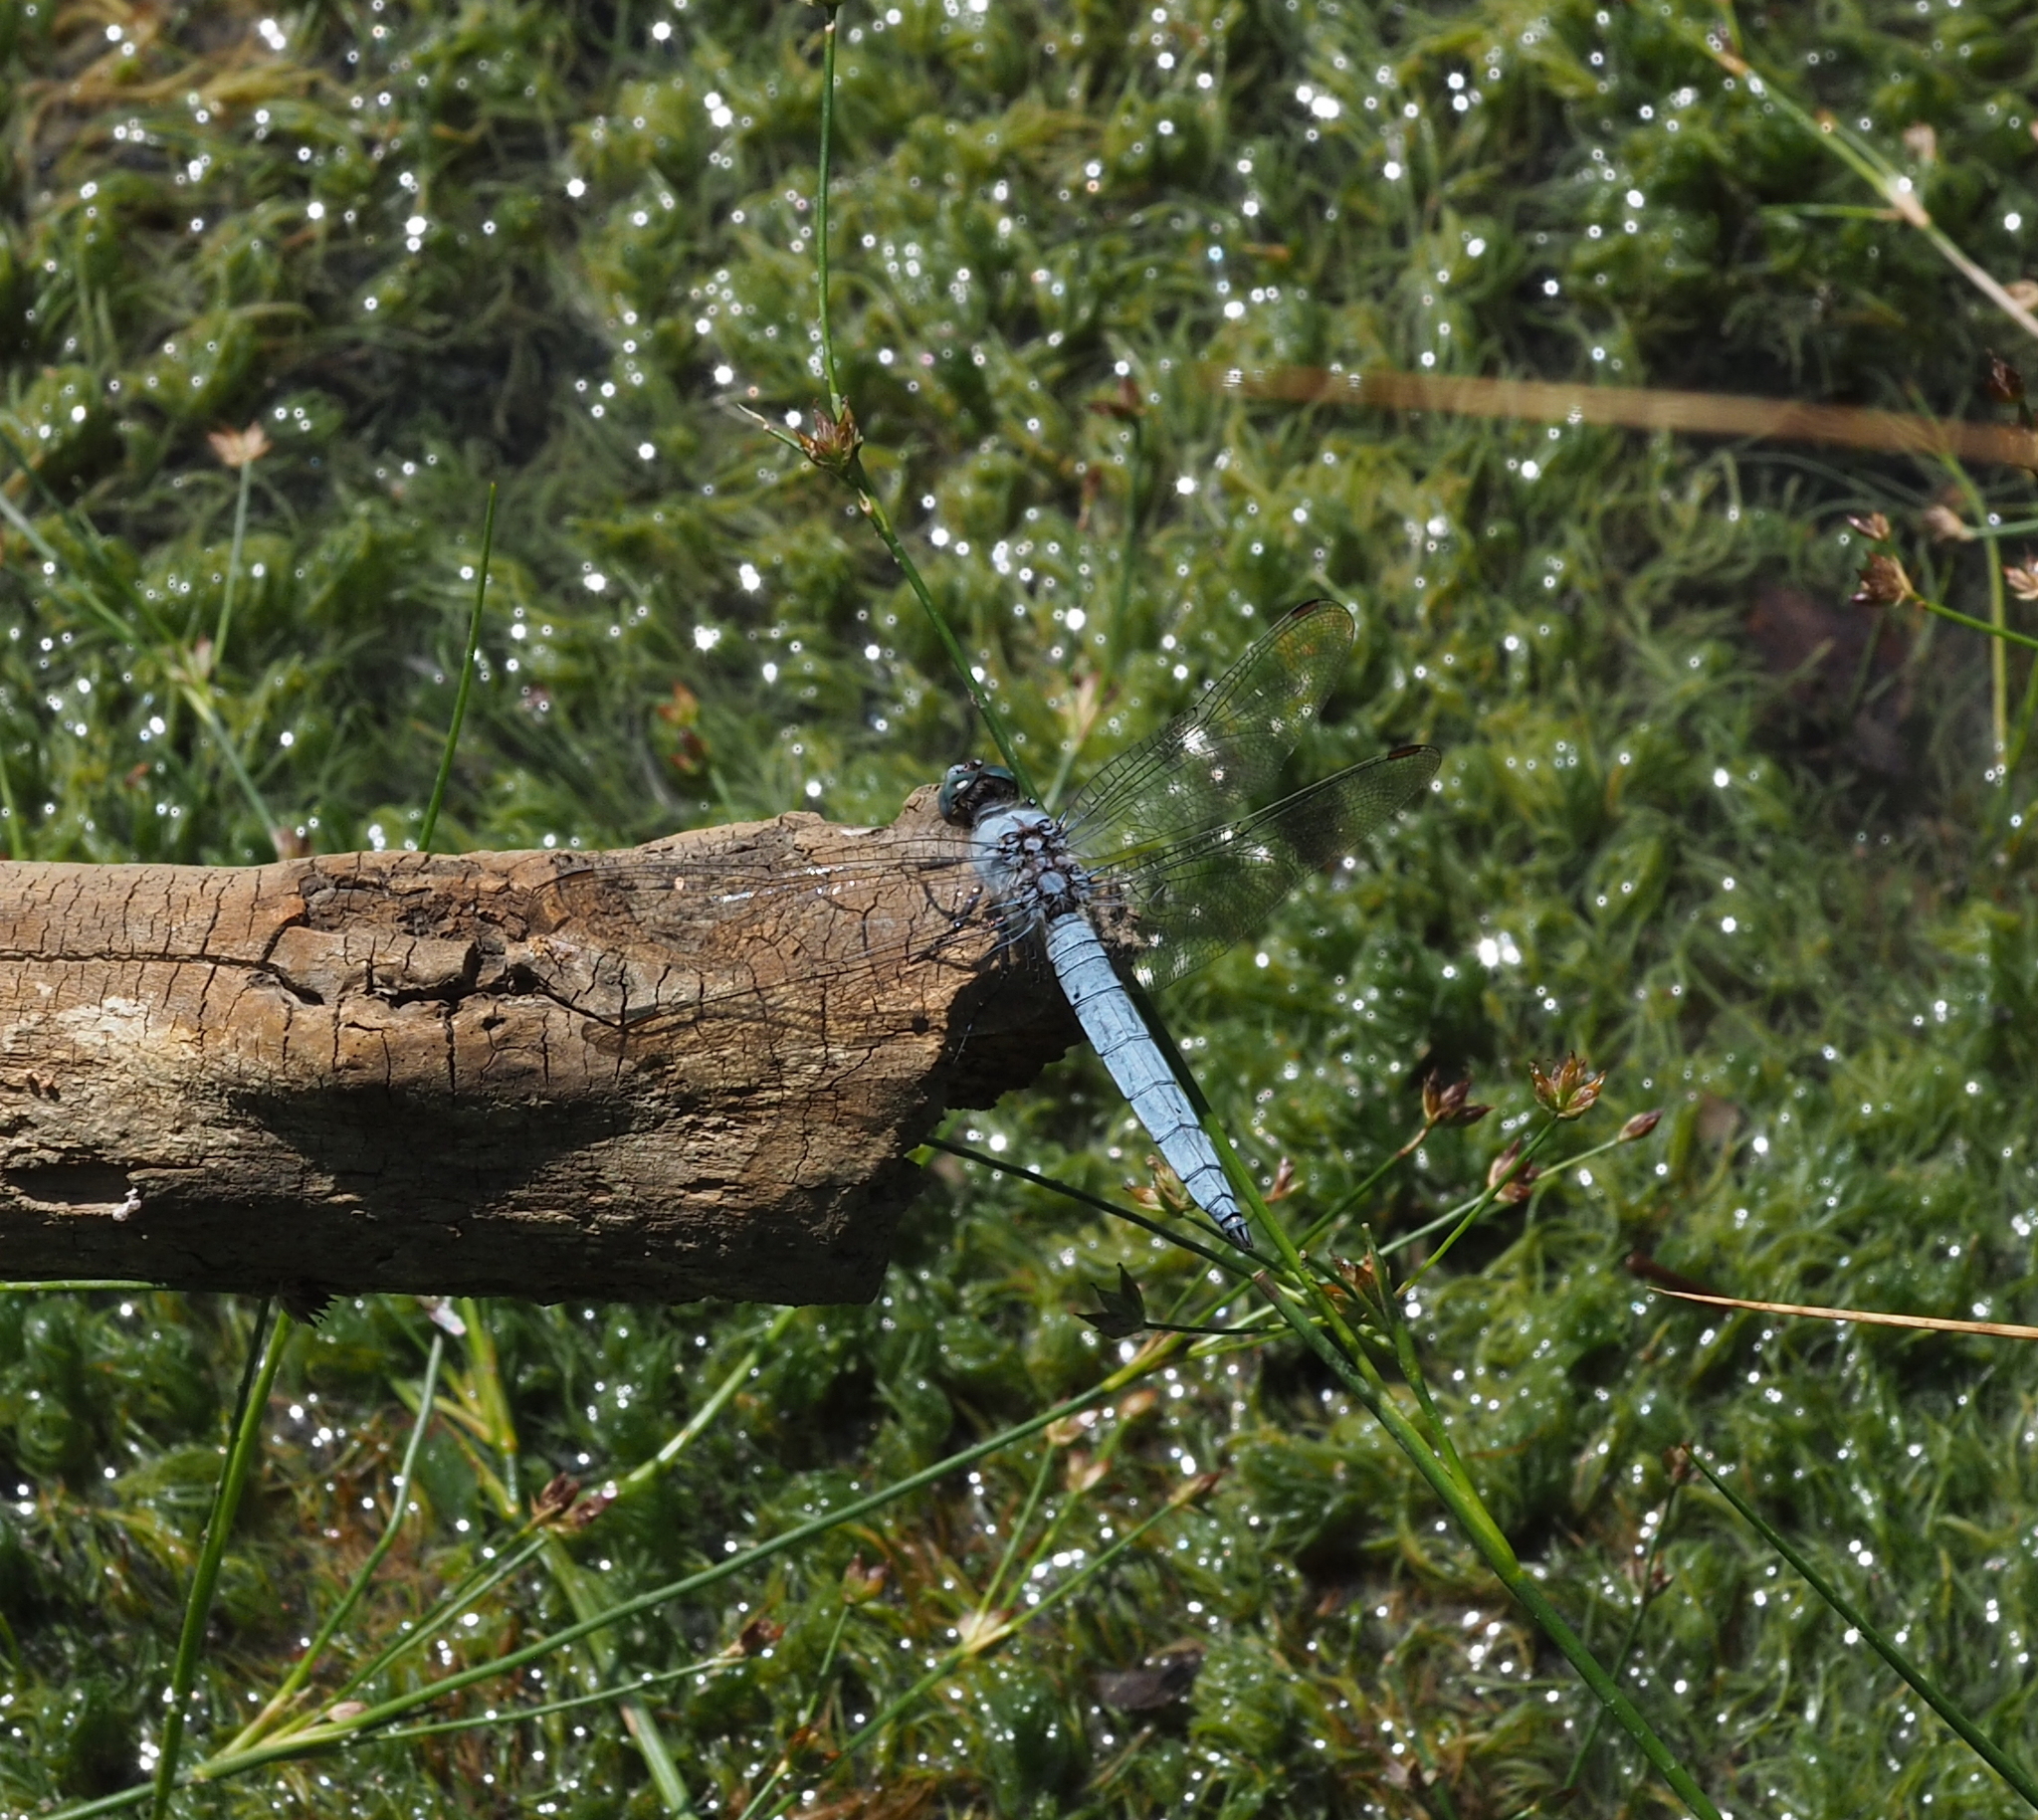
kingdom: Animalia
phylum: Arthropoda
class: Insecta
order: Odonata
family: Libellulidae
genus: Orthetrum
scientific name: Orthetrum brunneum
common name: Southern skimmer
